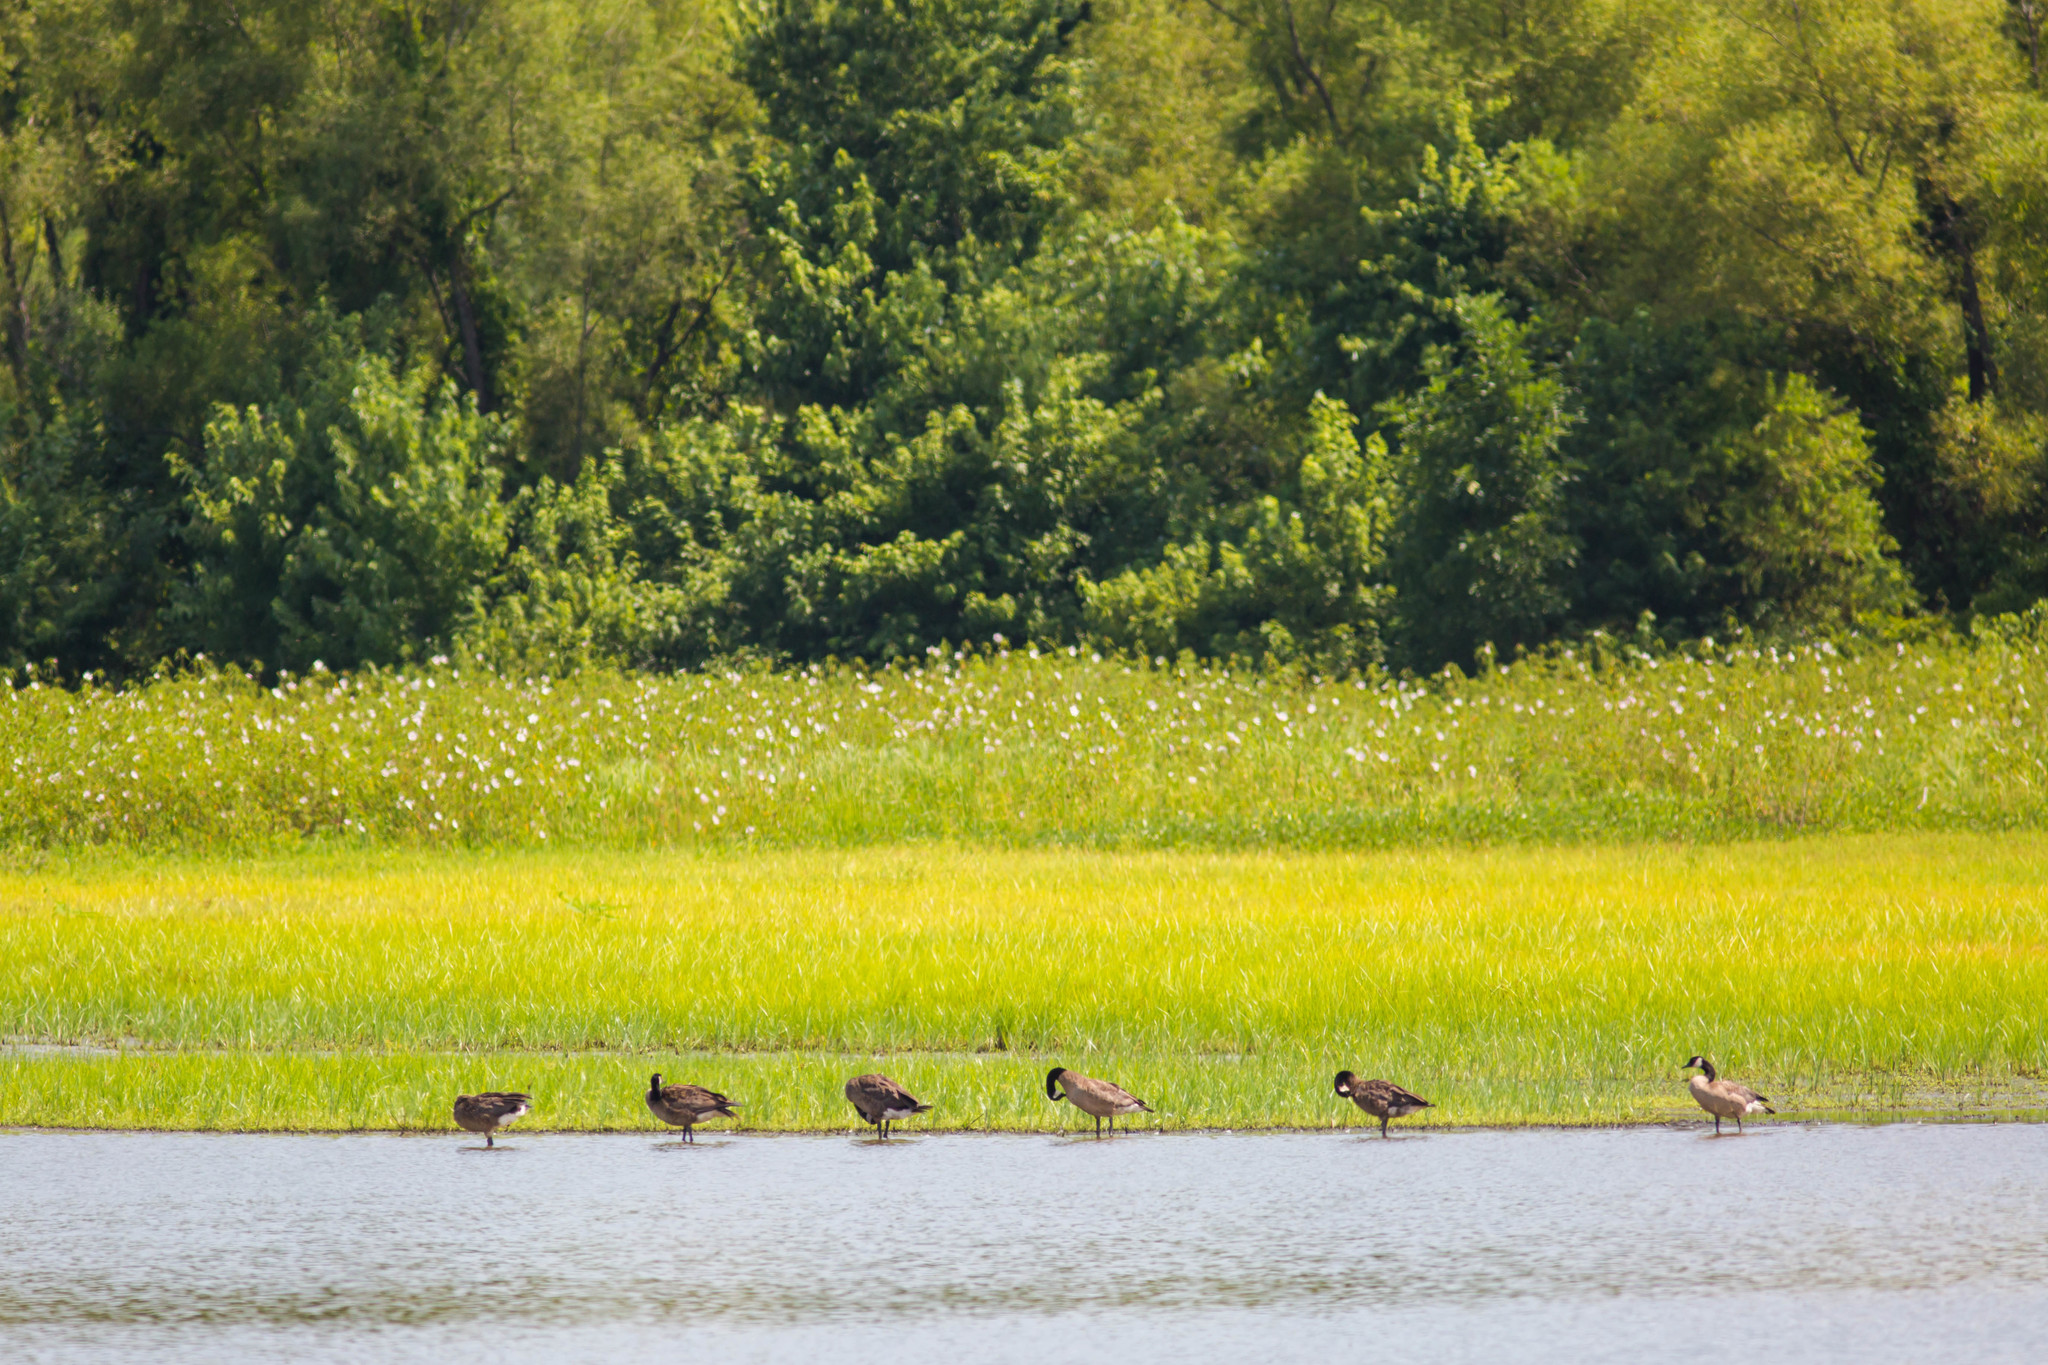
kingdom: Animalia
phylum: Chordata
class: Aves
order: Anseriformes
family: Anatidae
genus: Branta
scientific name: Branta canadensis
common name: Canada goose
